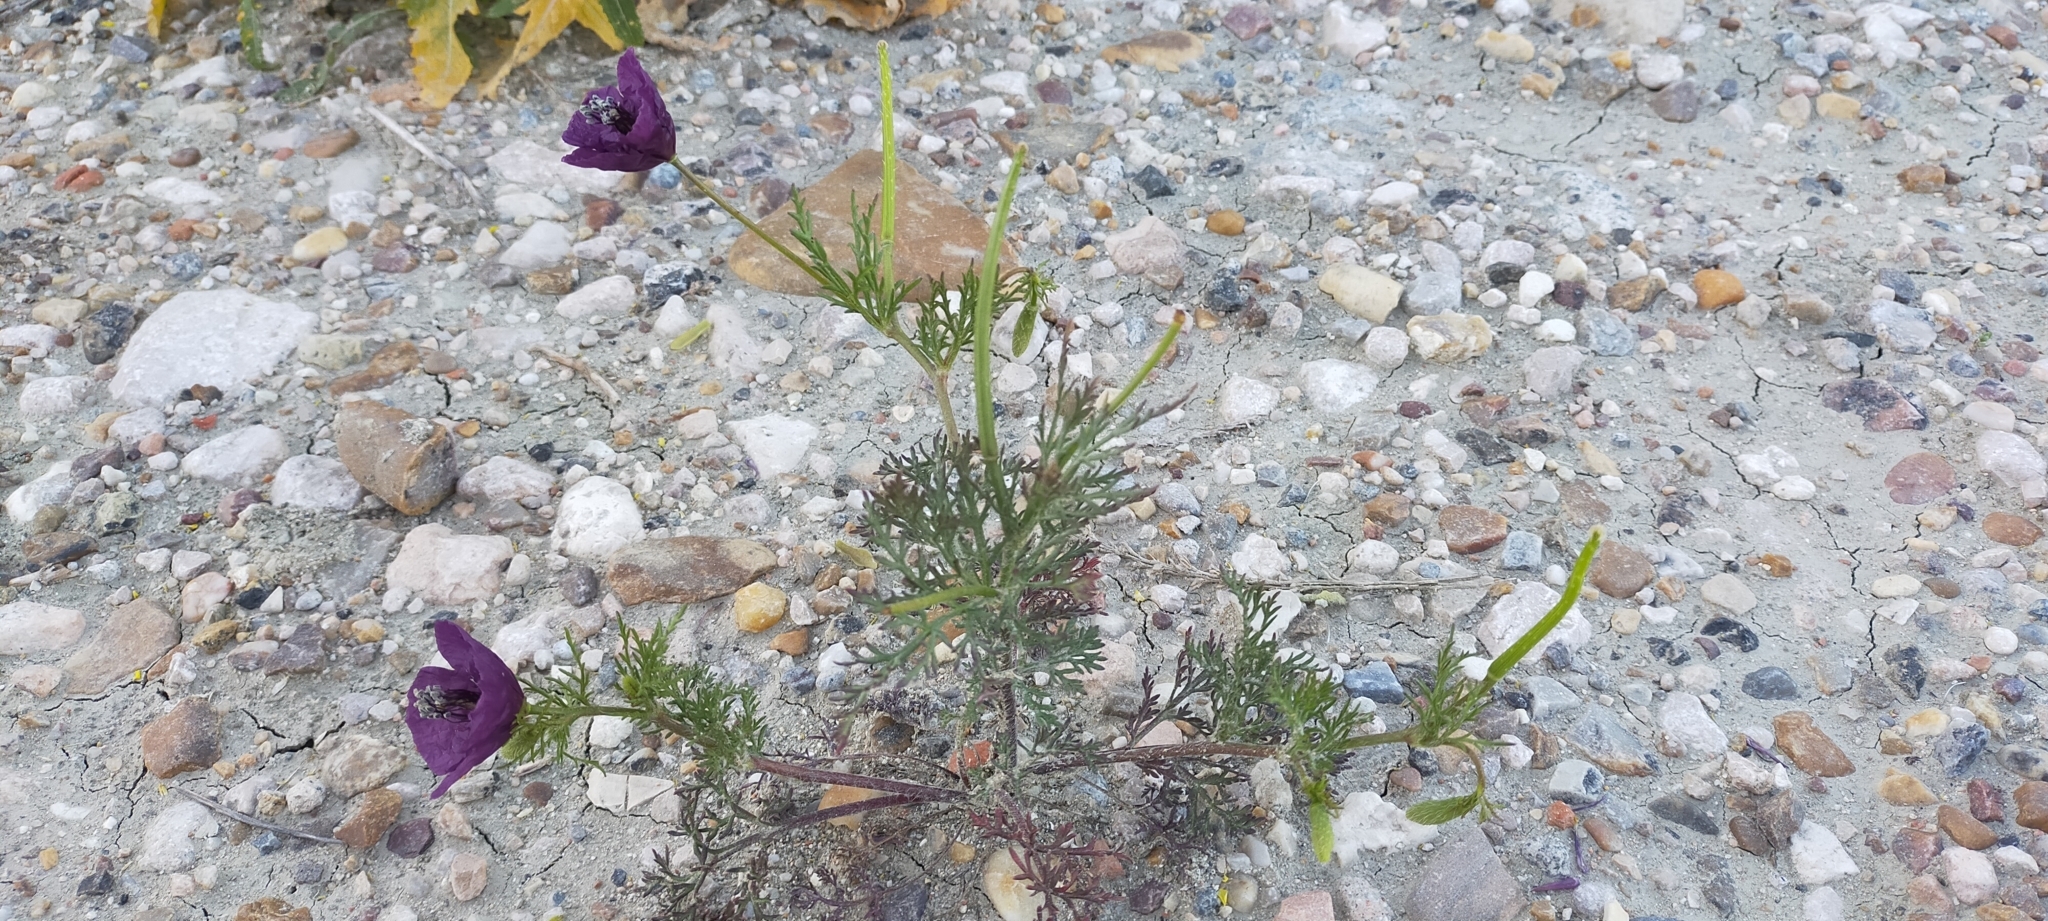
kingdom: Plantae
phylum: Tracheophyta
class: Magnoliopsida
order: Ranunculales
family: Papaveraceae
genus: Roemeria
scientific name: Roemeria hybrida
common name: Violet horned-poppy
